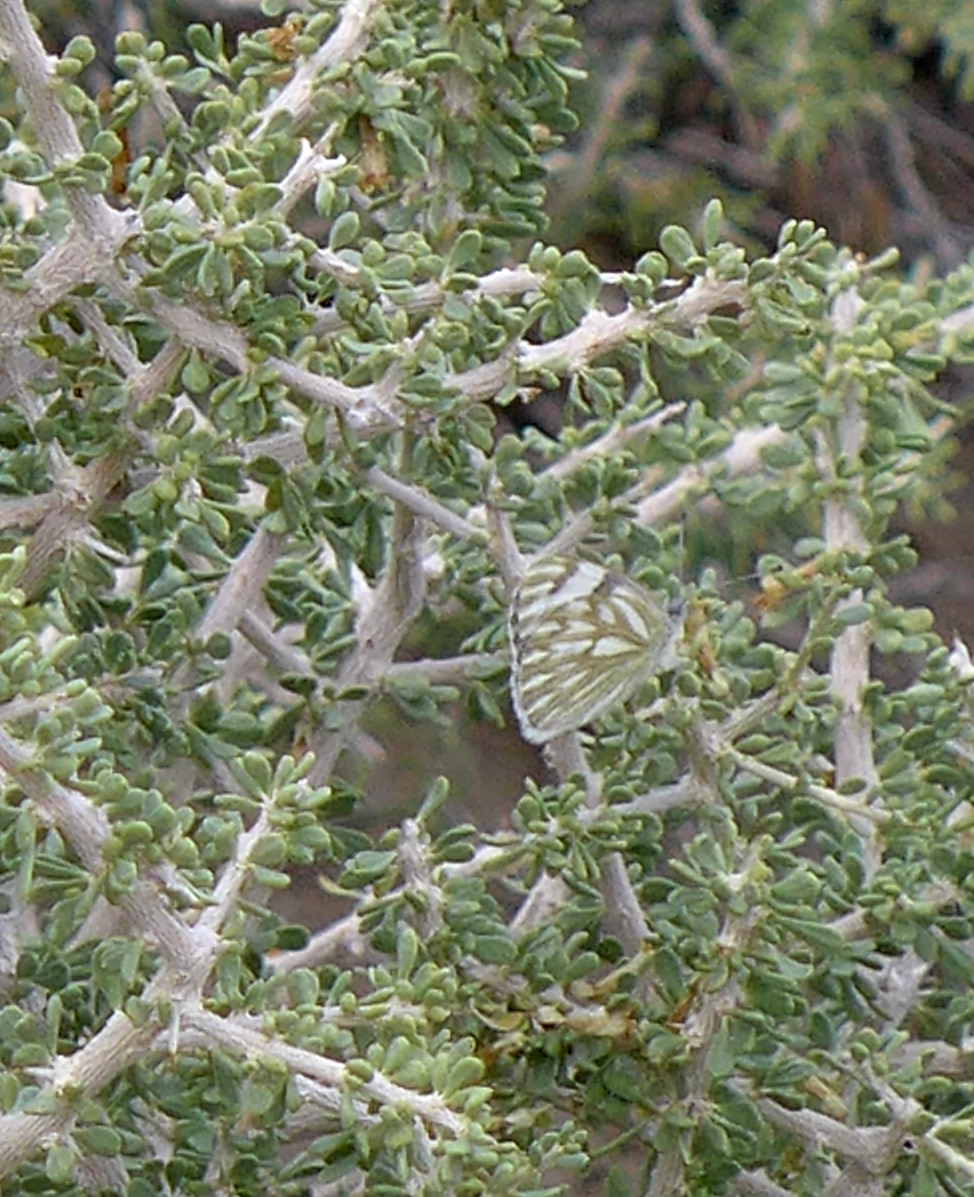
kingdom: Animalia
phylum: Arthropoda
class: Insecta
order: Lepidoptera
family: Pieridae
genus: Pontia
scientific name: Pontia protodice
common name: Checkered white
